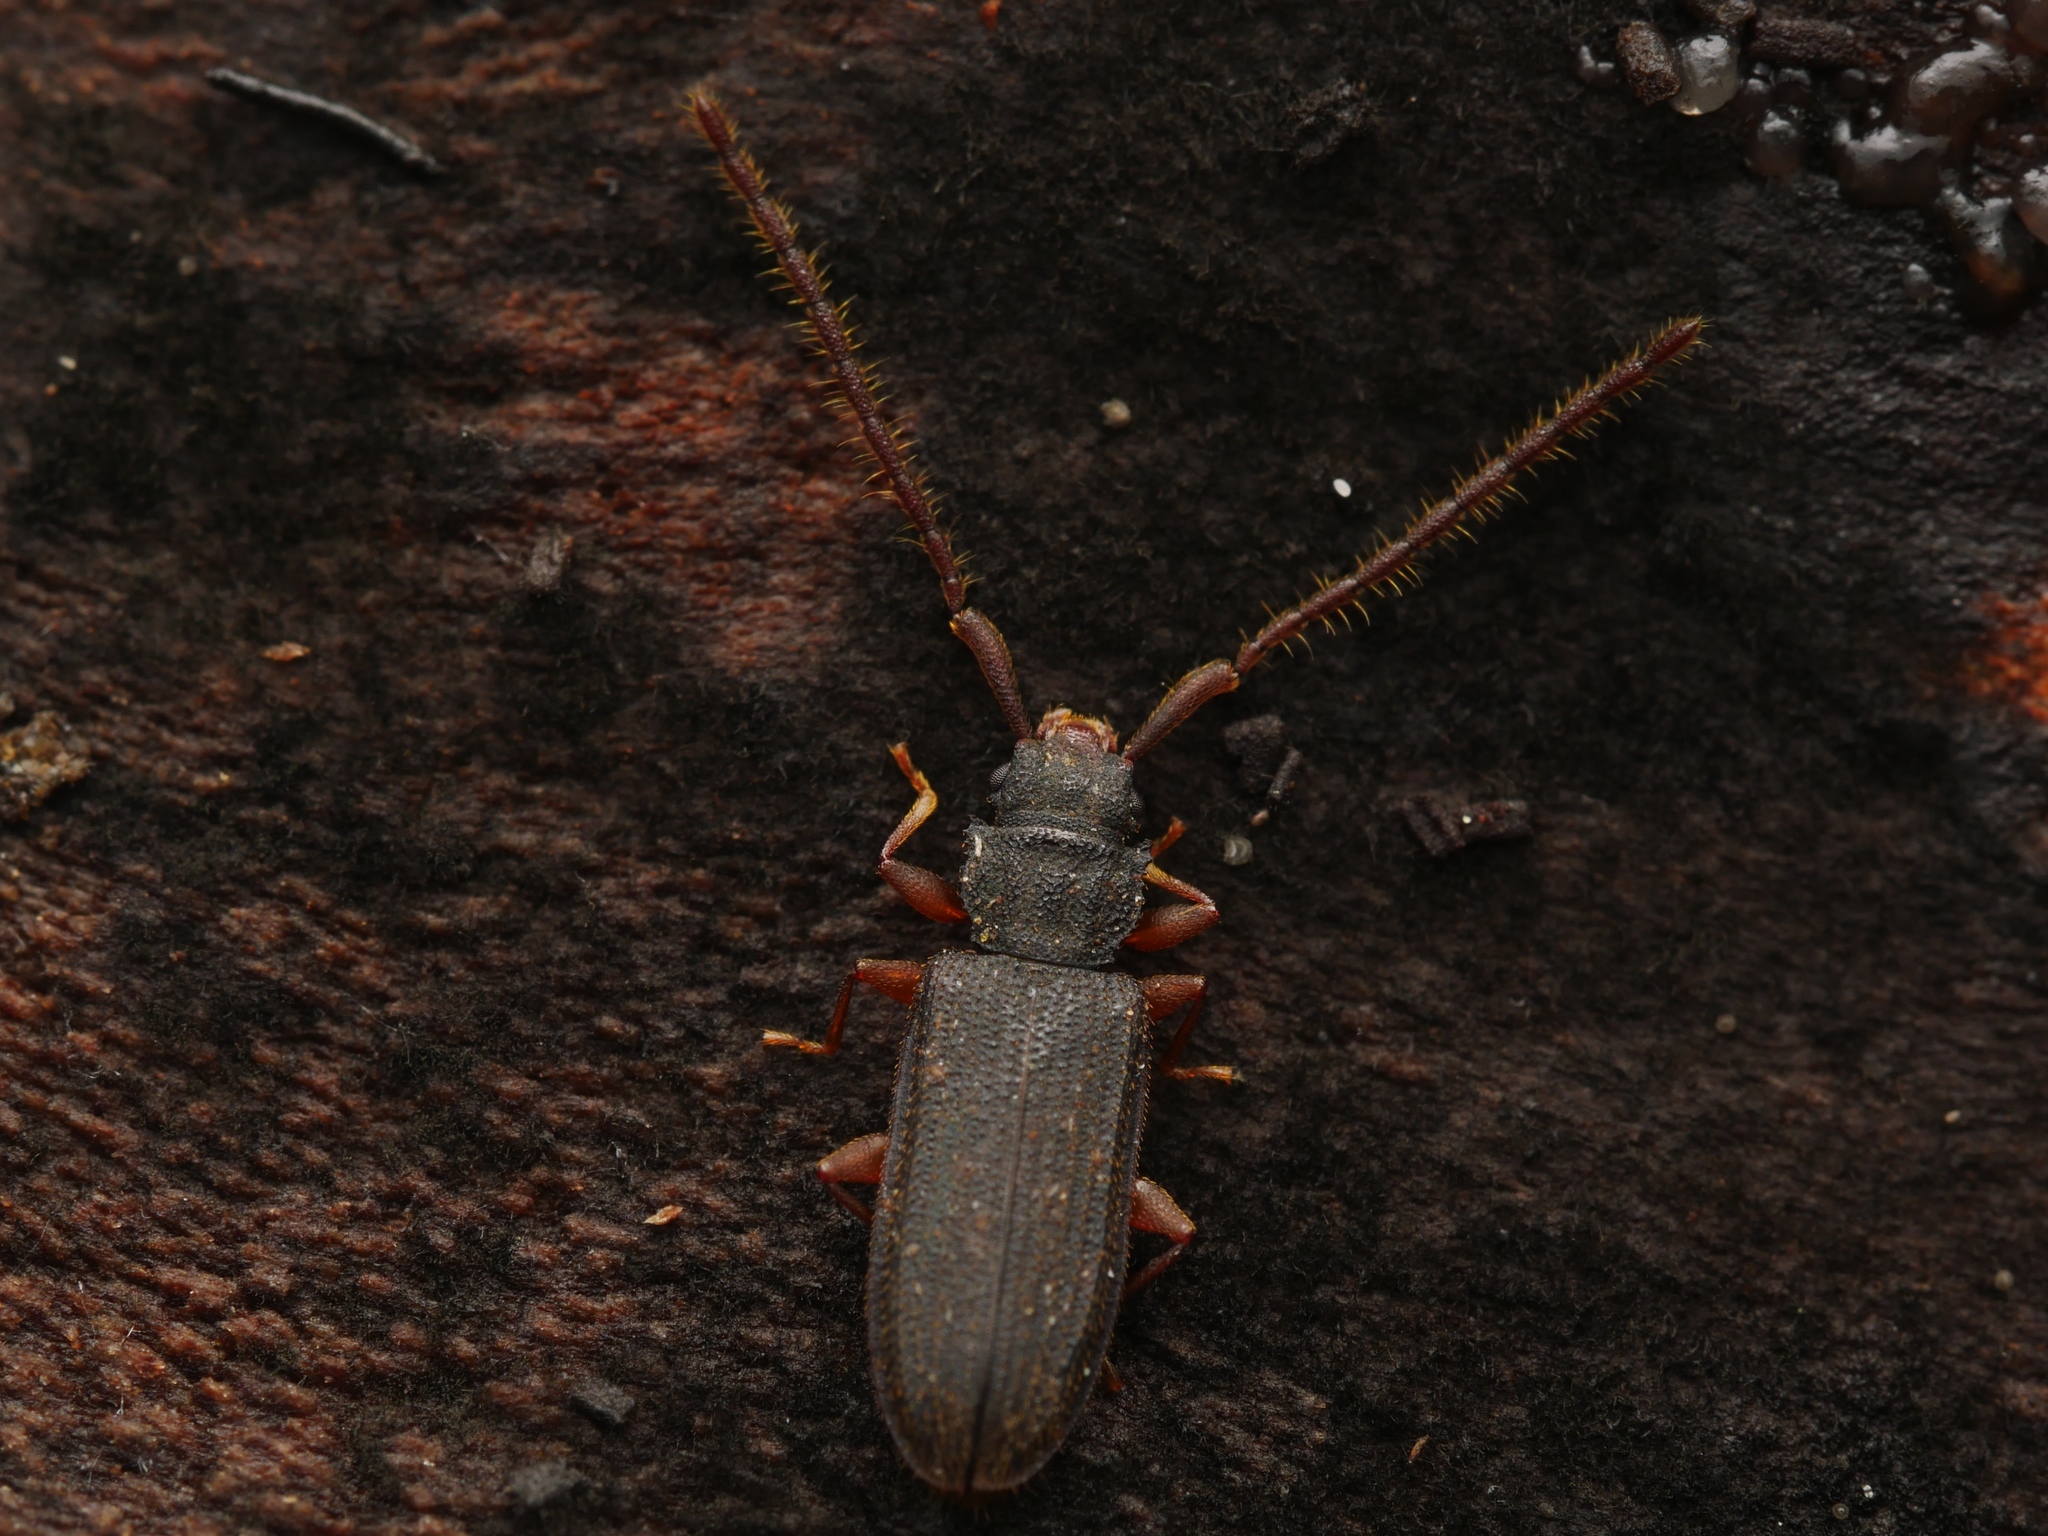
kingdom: Animalia
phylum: Arthropoda
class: Insecta
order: Coleoptera
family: Silvanidae
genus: Uleiota
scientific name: Uleiota planatus
